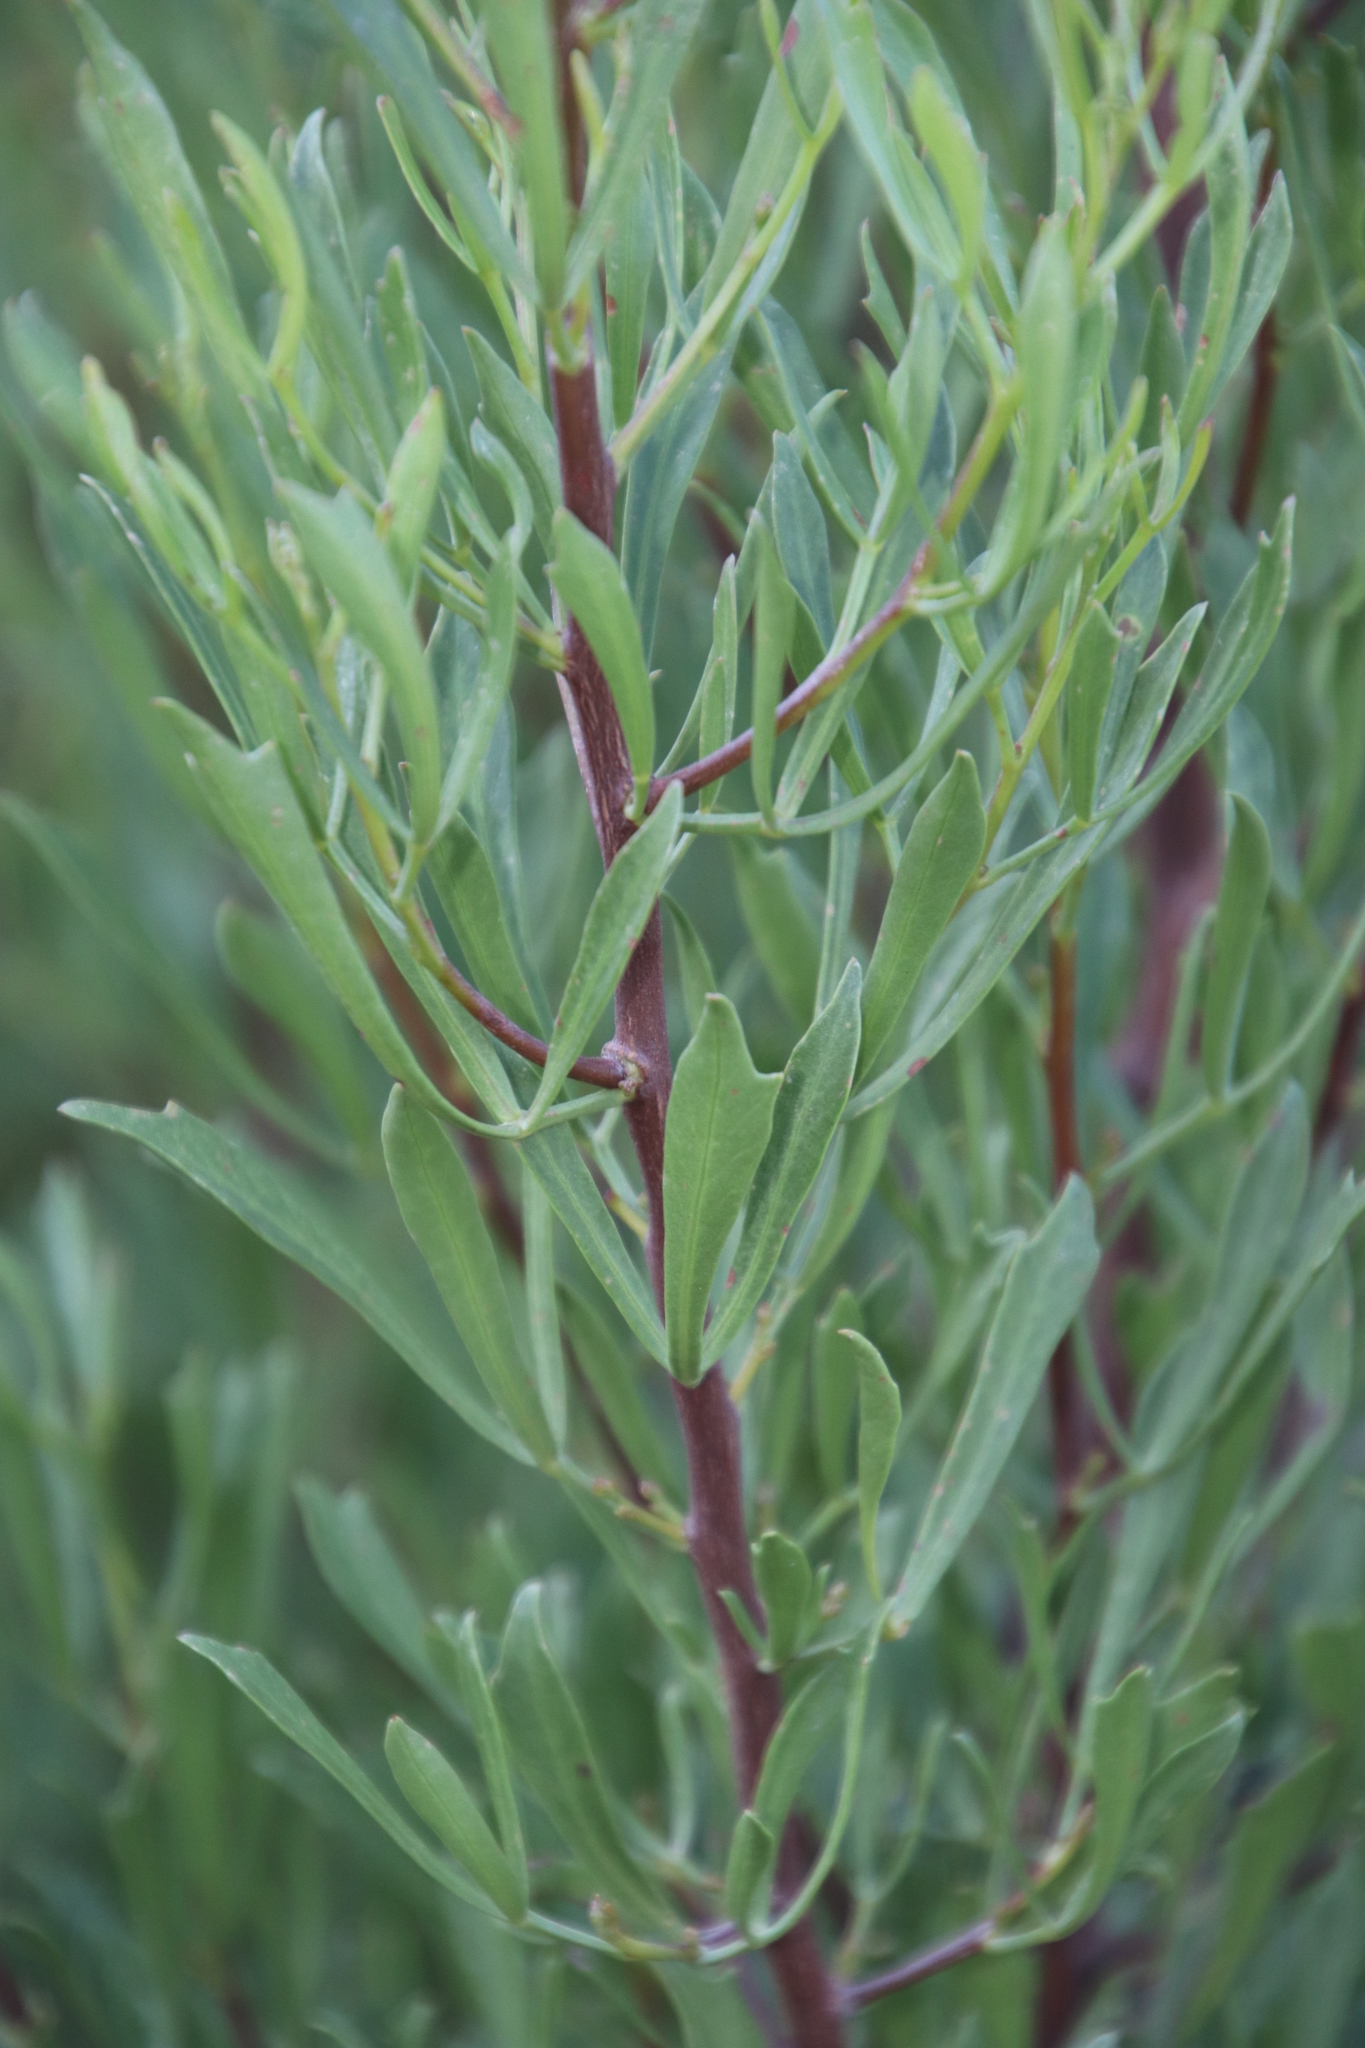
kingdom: Plantae
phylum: Tracheophyta
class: Magnoliopsida
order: Sapindales
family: Anacardiaceae
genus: Searsia
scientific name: Searsia rimosa
